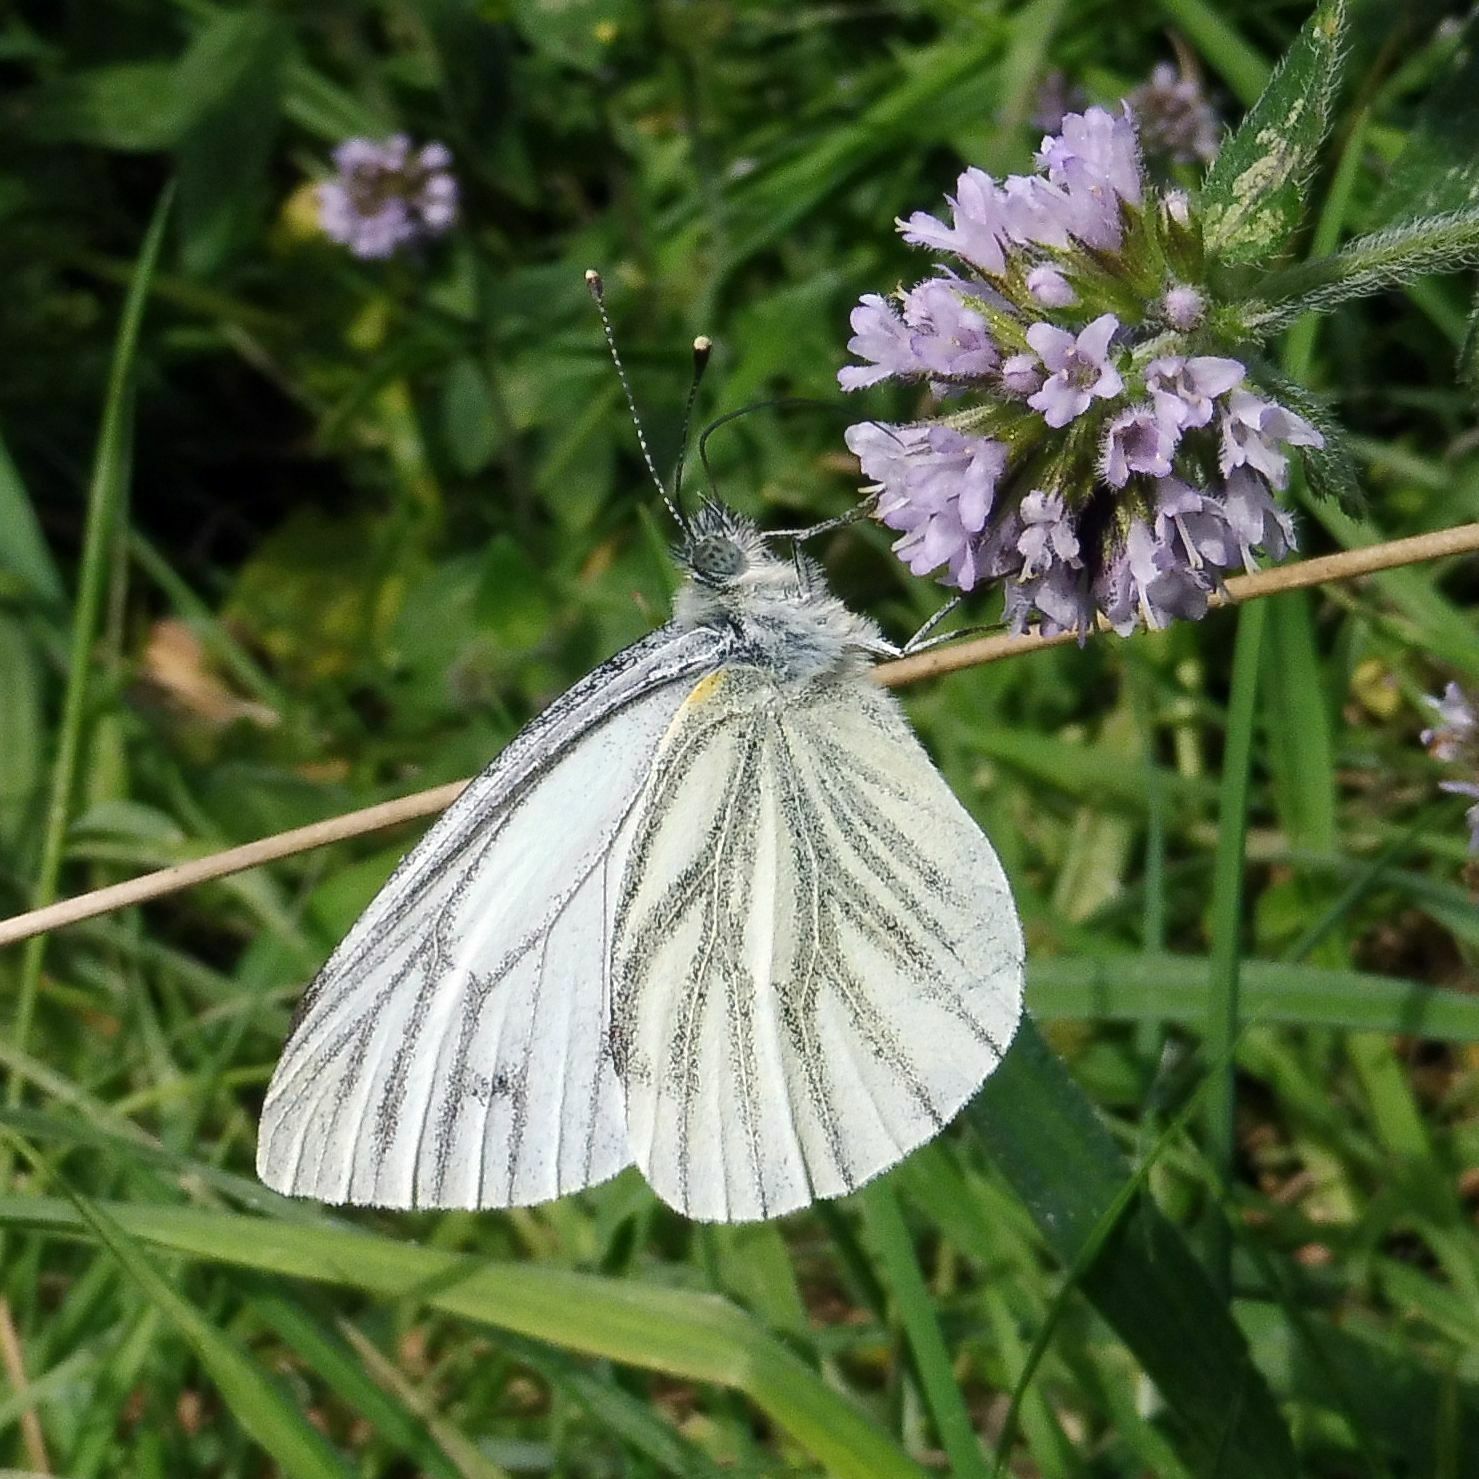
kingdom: Animalia
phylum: Arthropoda
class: Insecta
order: Lepidoptera
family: Pieridae
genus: Pieris
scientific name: Pieris napi
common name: Green-veined white
